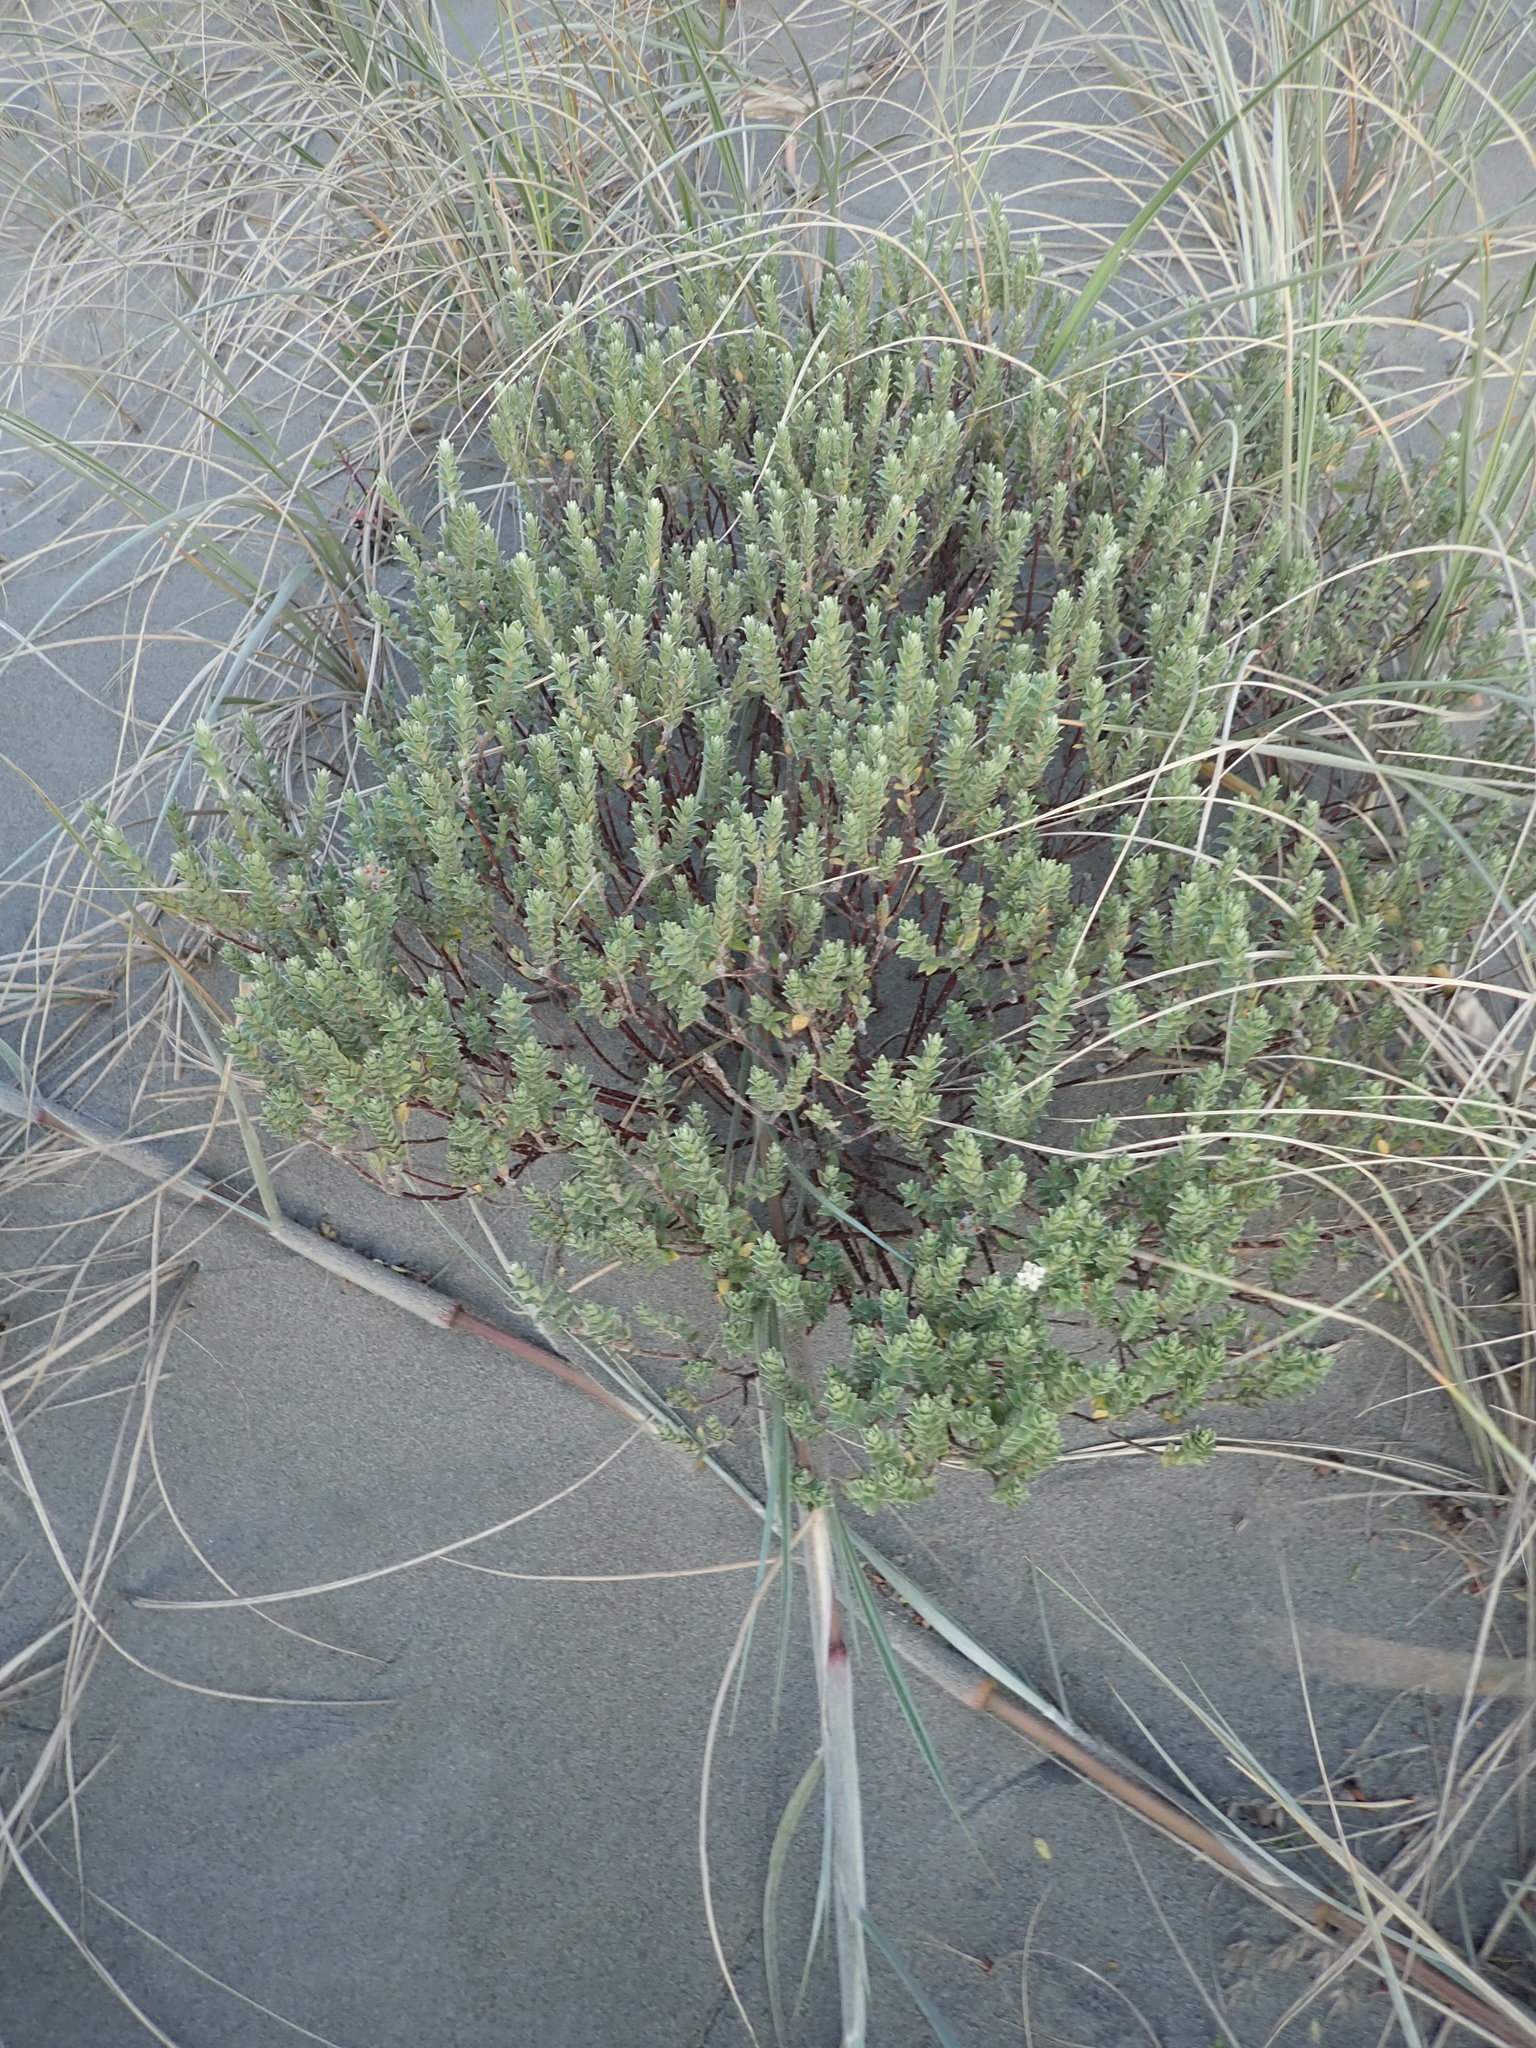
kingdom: Plantae
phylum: Tracheophyta
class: Magnoliopsida
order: Malvales
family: Thymelaeaceae
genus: Pimelea
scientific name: Pimelea villosa
